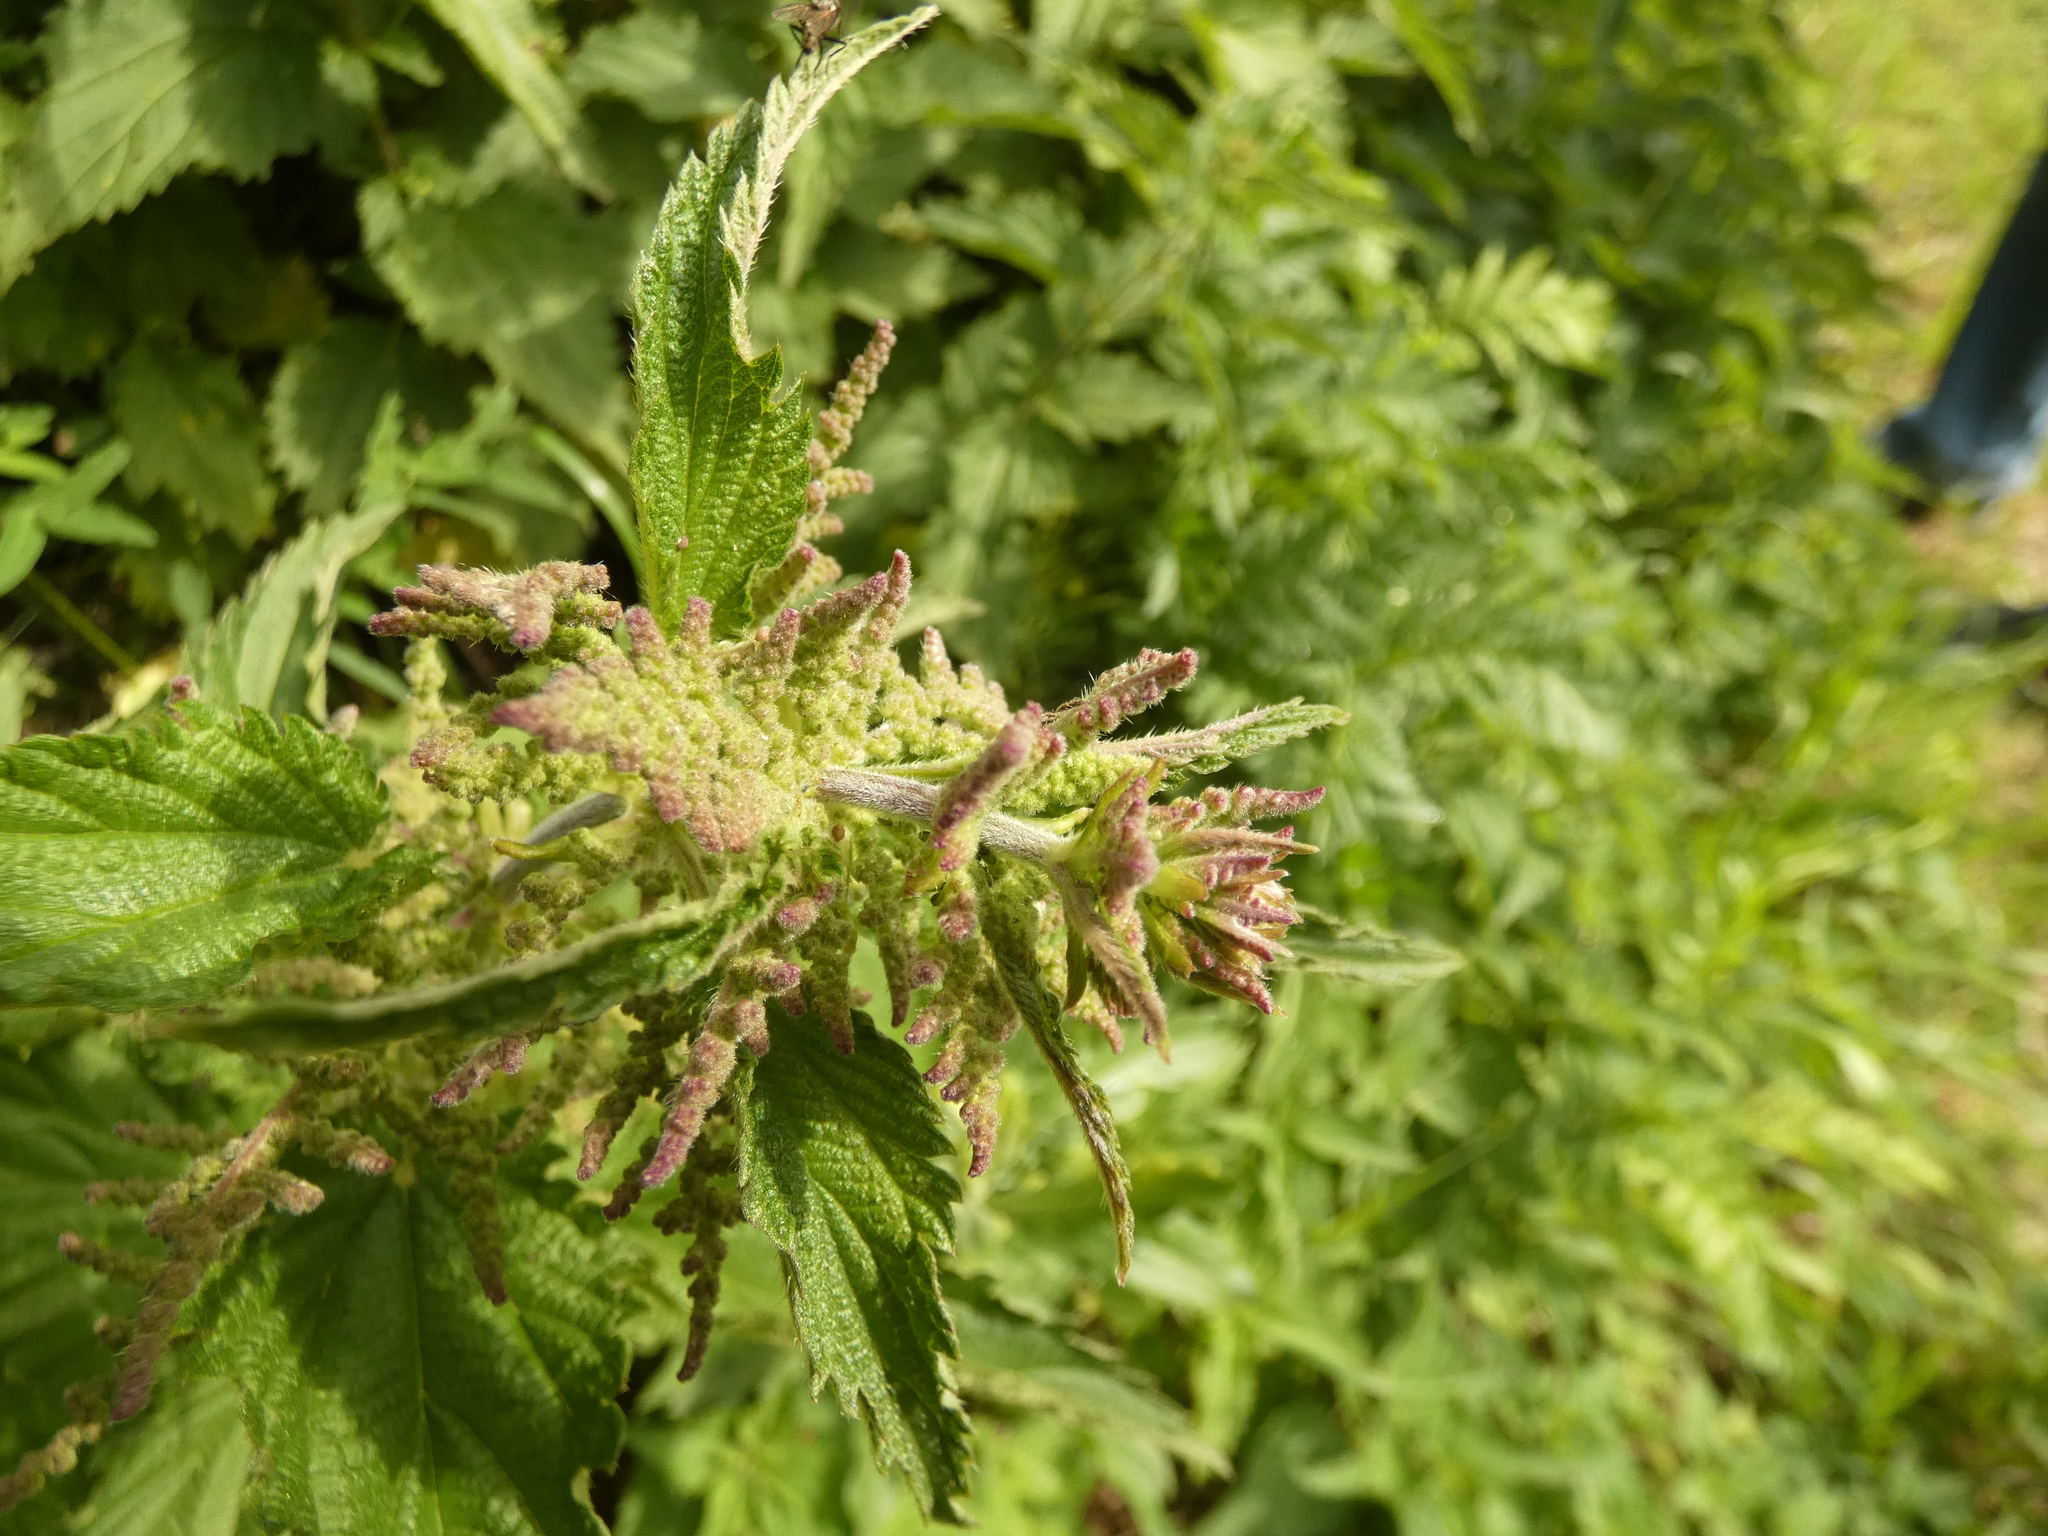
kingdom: Plantae
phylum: Tracheophyta
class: Magnoliopsida
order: Rosales
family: Urticaceae
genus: Urtica
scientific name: Urtica dioica
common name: Common nettle
